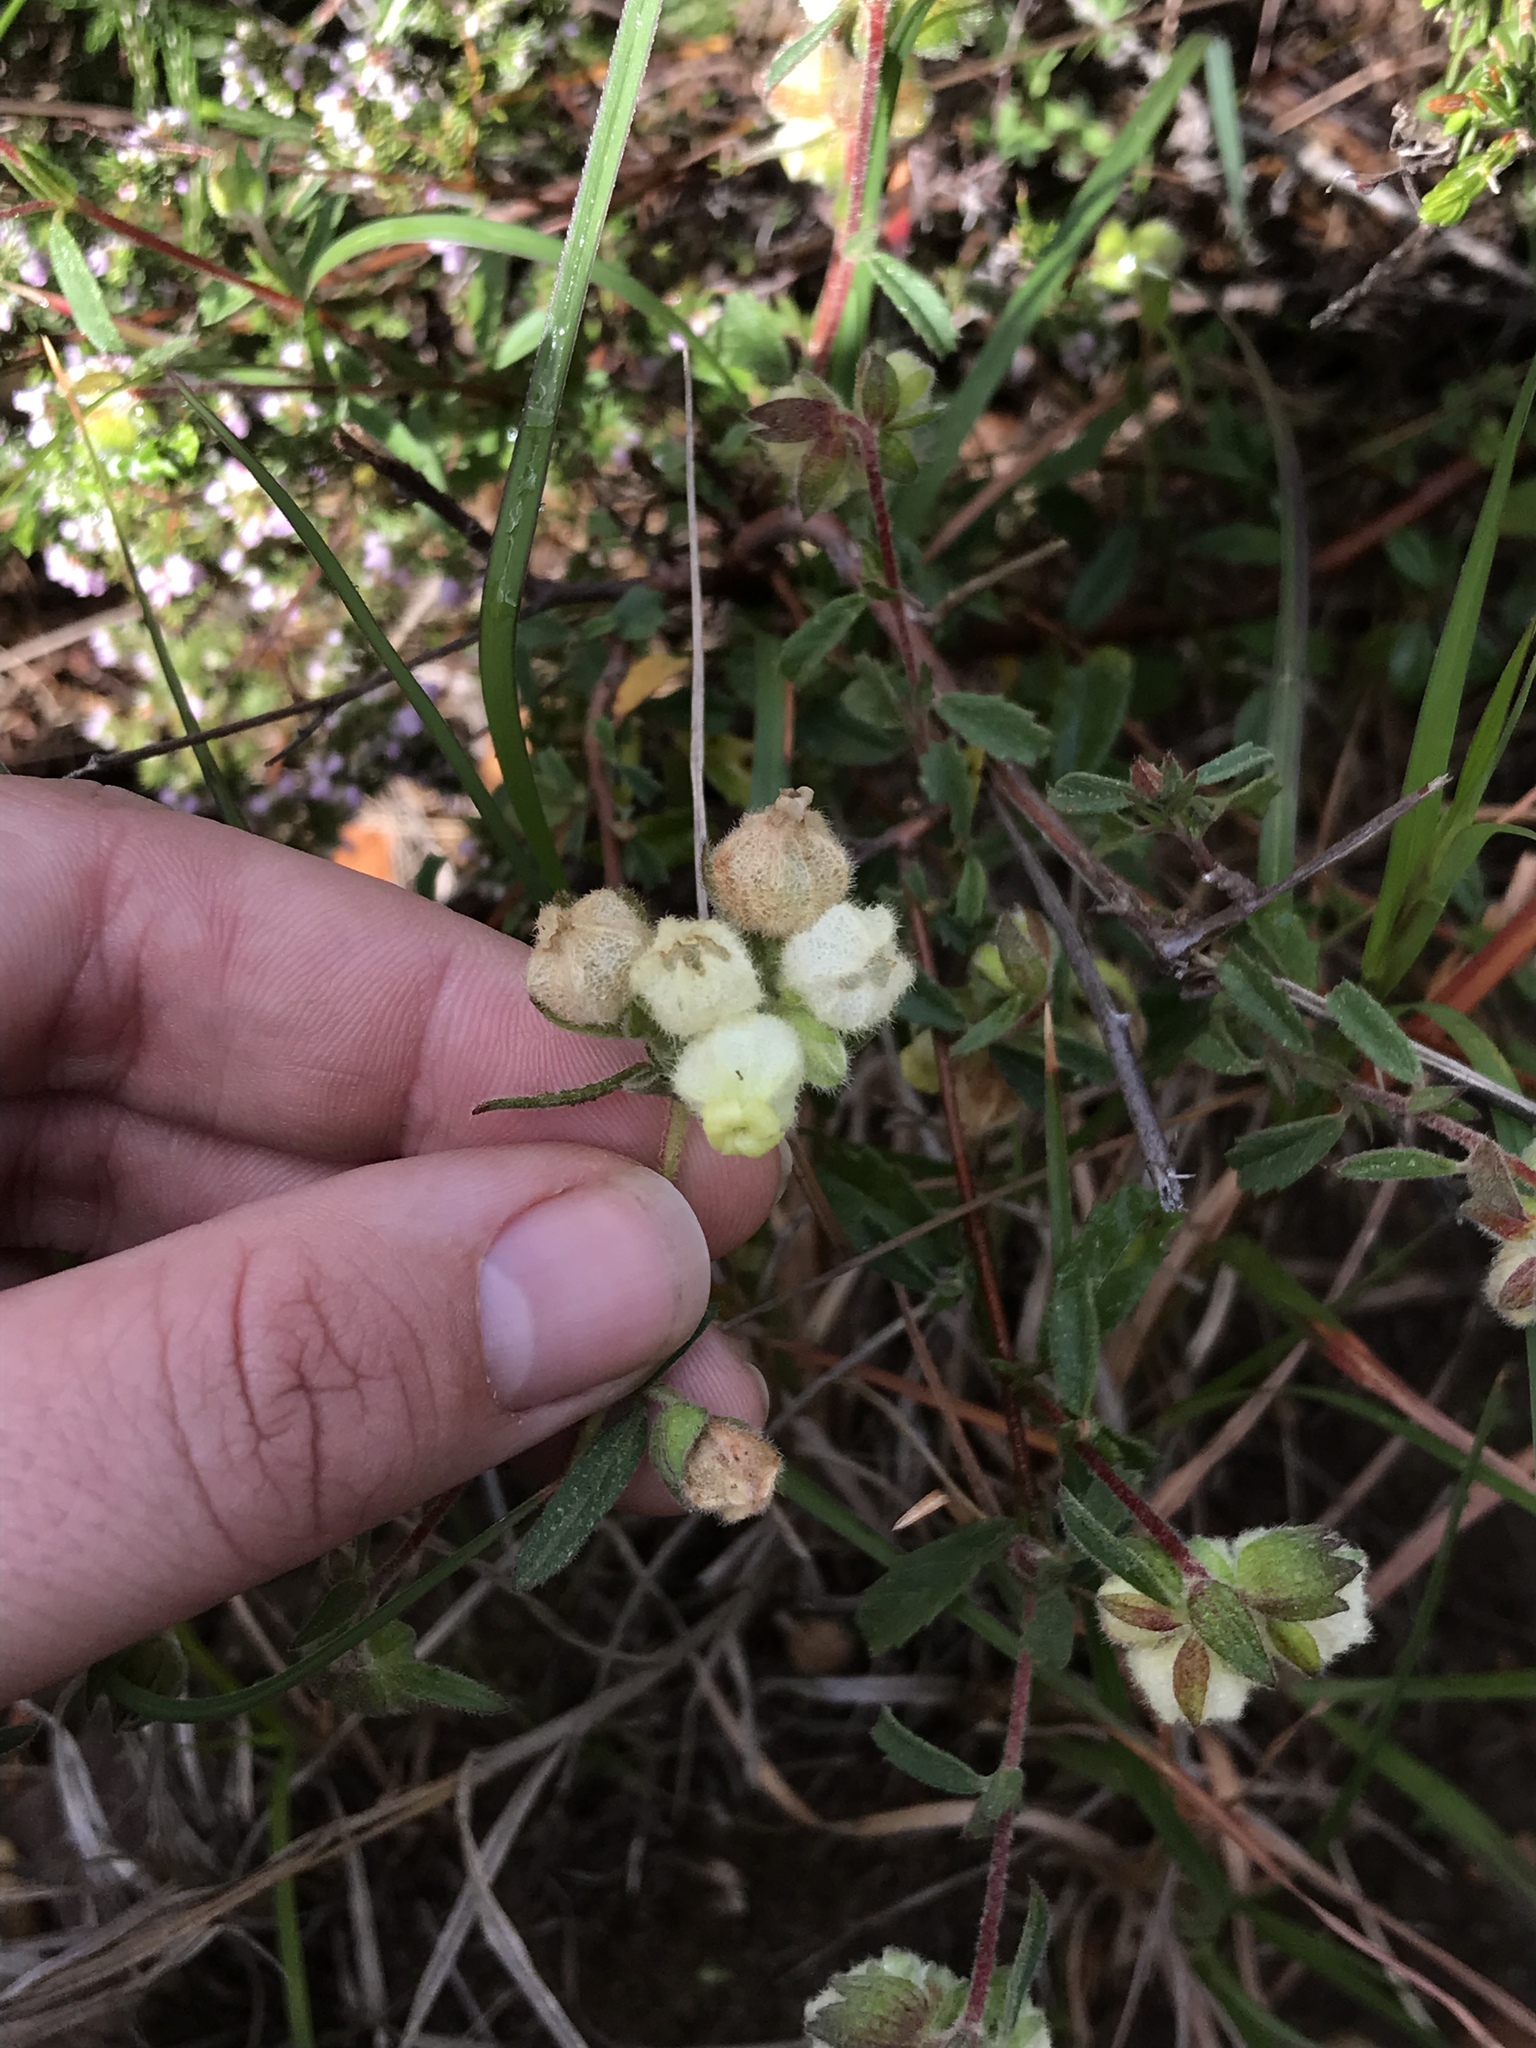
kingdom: Plantae
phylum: Tracheophyta
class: Magnoliopsida
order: Malvales
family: Malvaceae
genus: Hermannia
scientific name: Hermannia hyssopifolia
